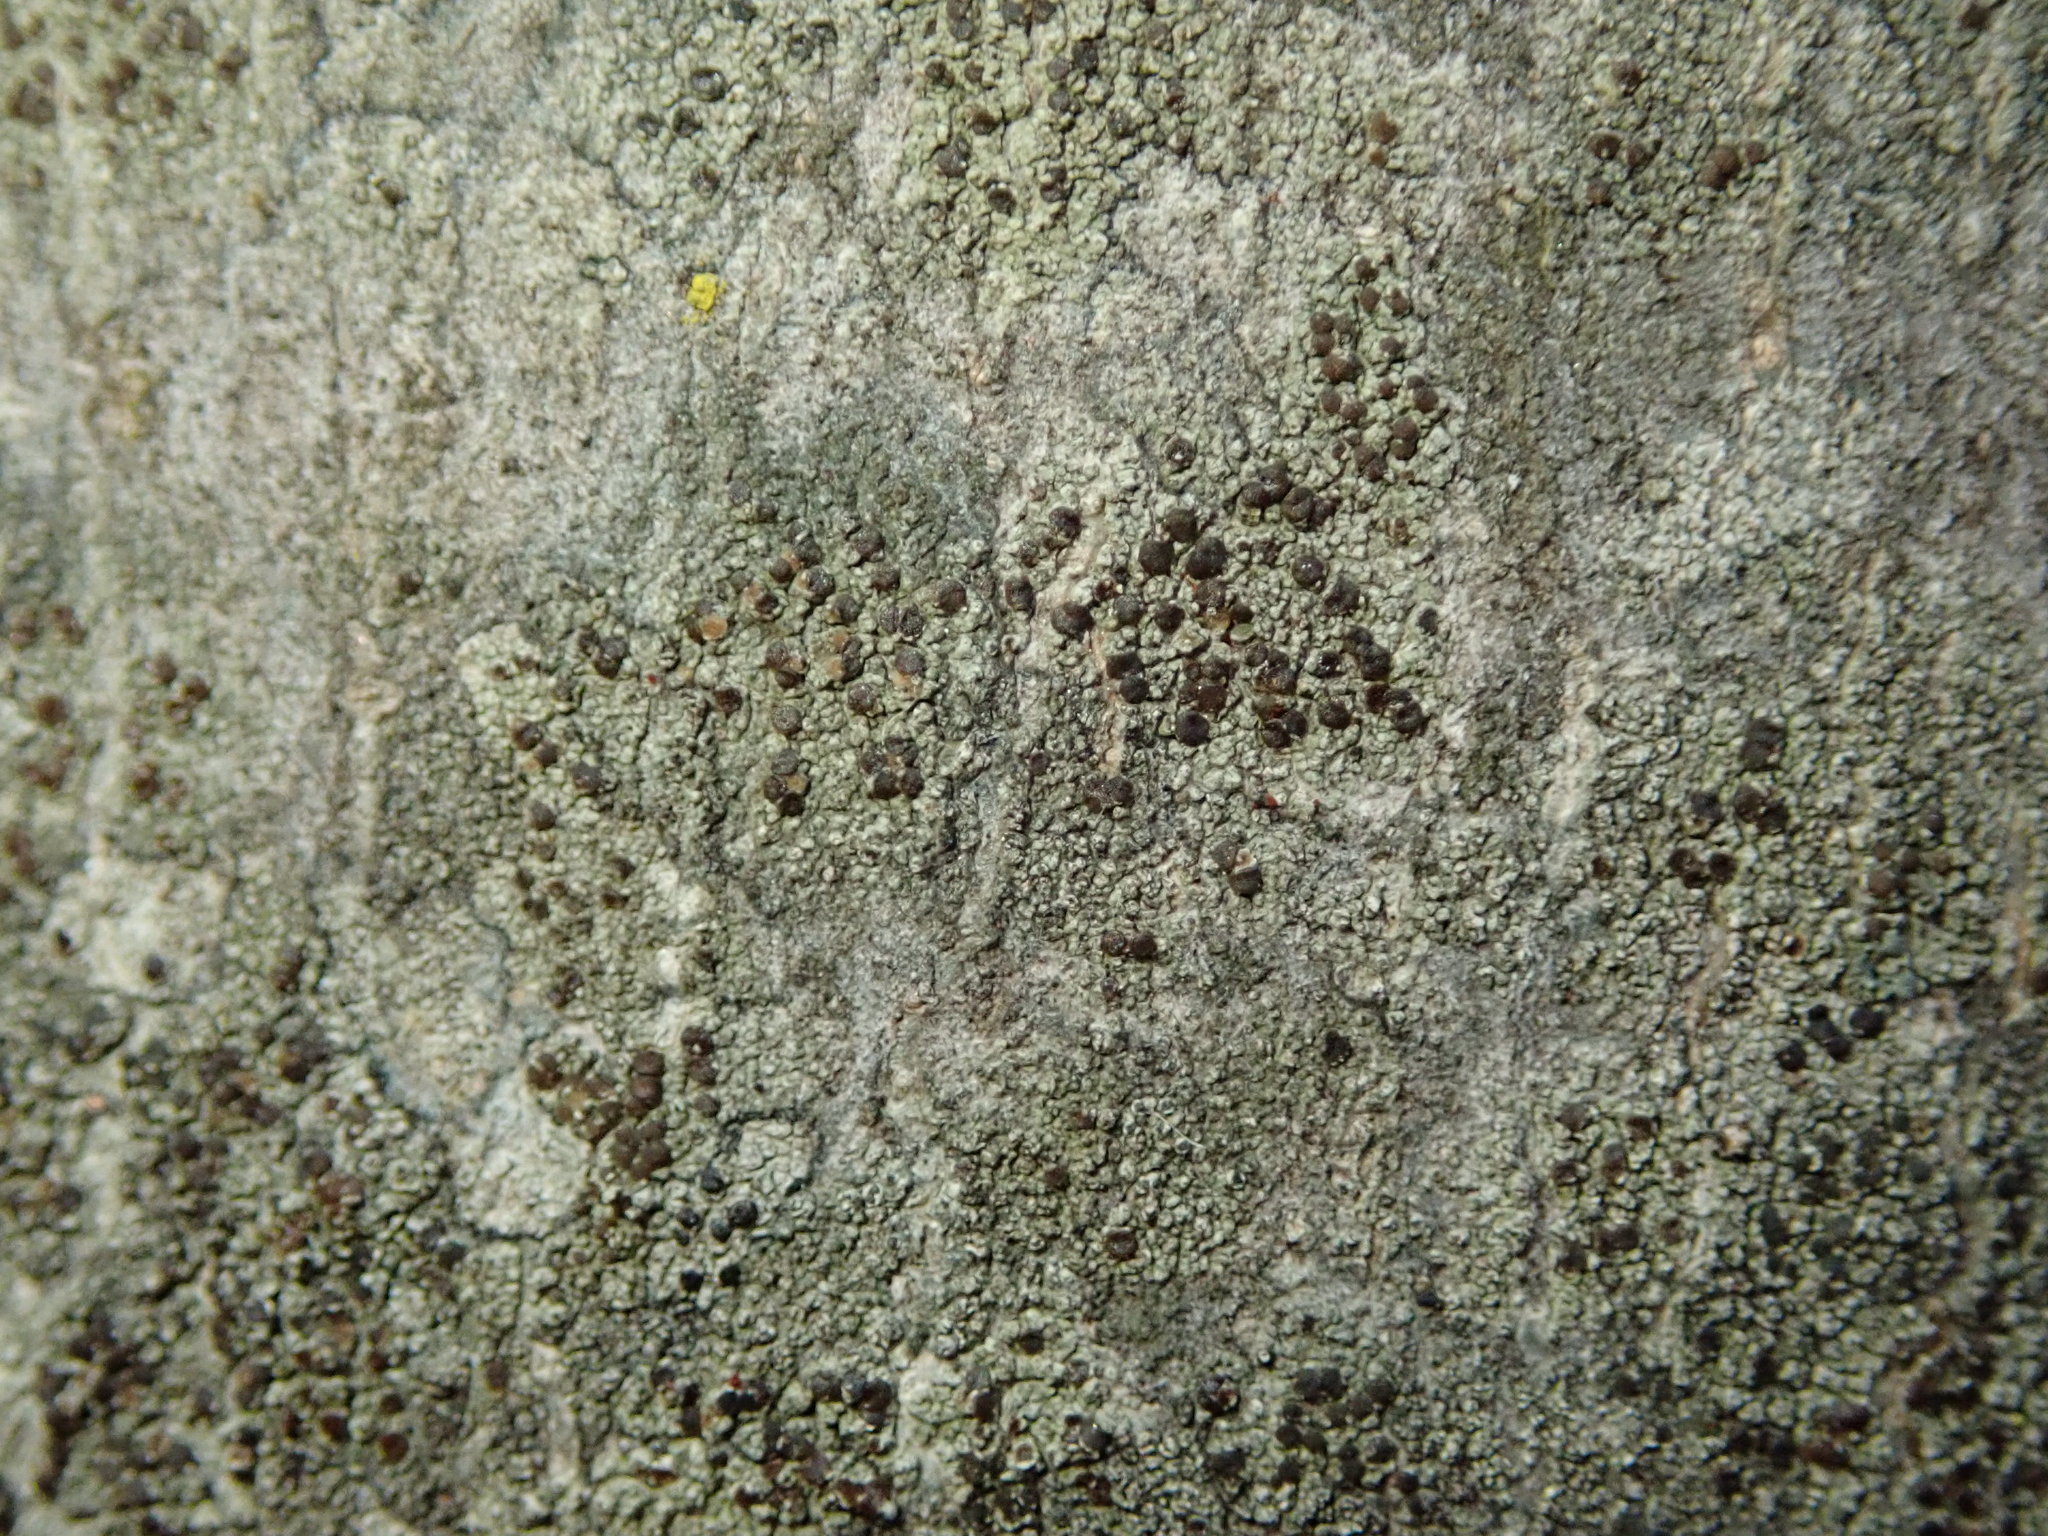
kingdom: Fungi
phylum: Ascomycota
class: Lecanoromycetes
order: Lecanorales
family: Lecanoraceae
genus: Traponora
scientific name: Traponora varians
